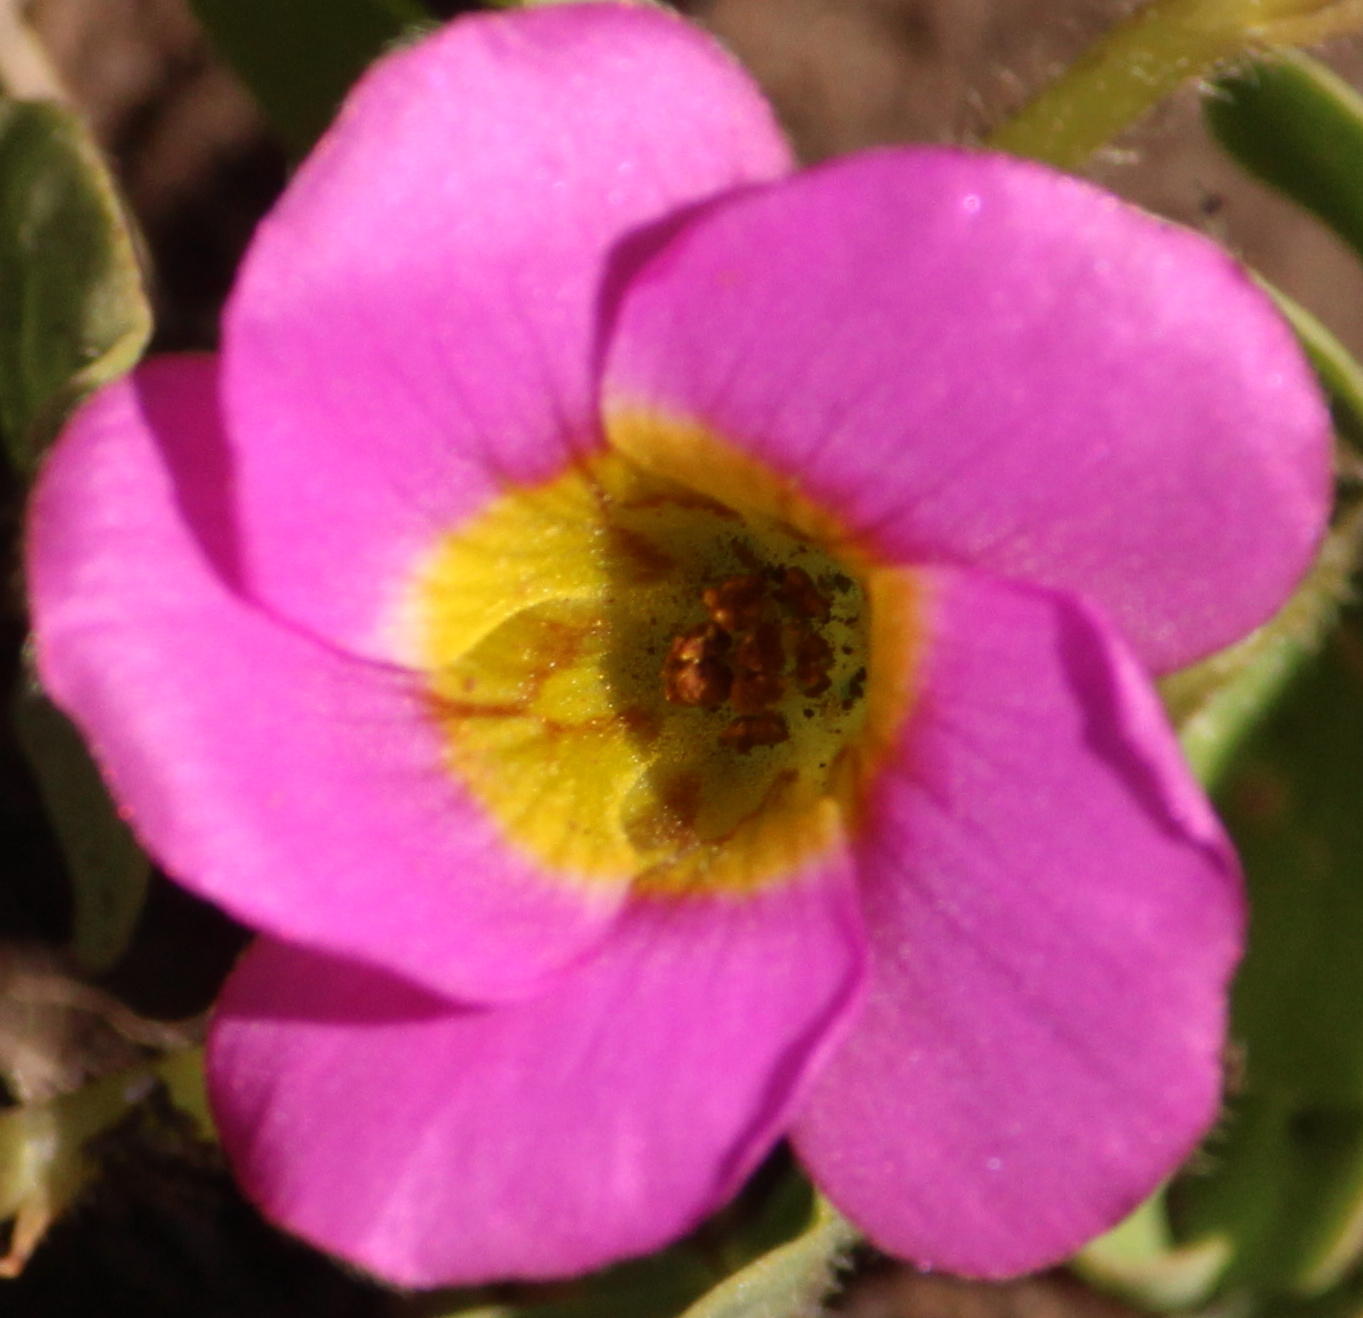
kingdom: Plantae
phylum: Tracheophyta
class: Magnoliopsida
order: Oxalidales
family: Oxalidaceae
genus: Oxalis
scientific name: Oxalis obliquifolia
